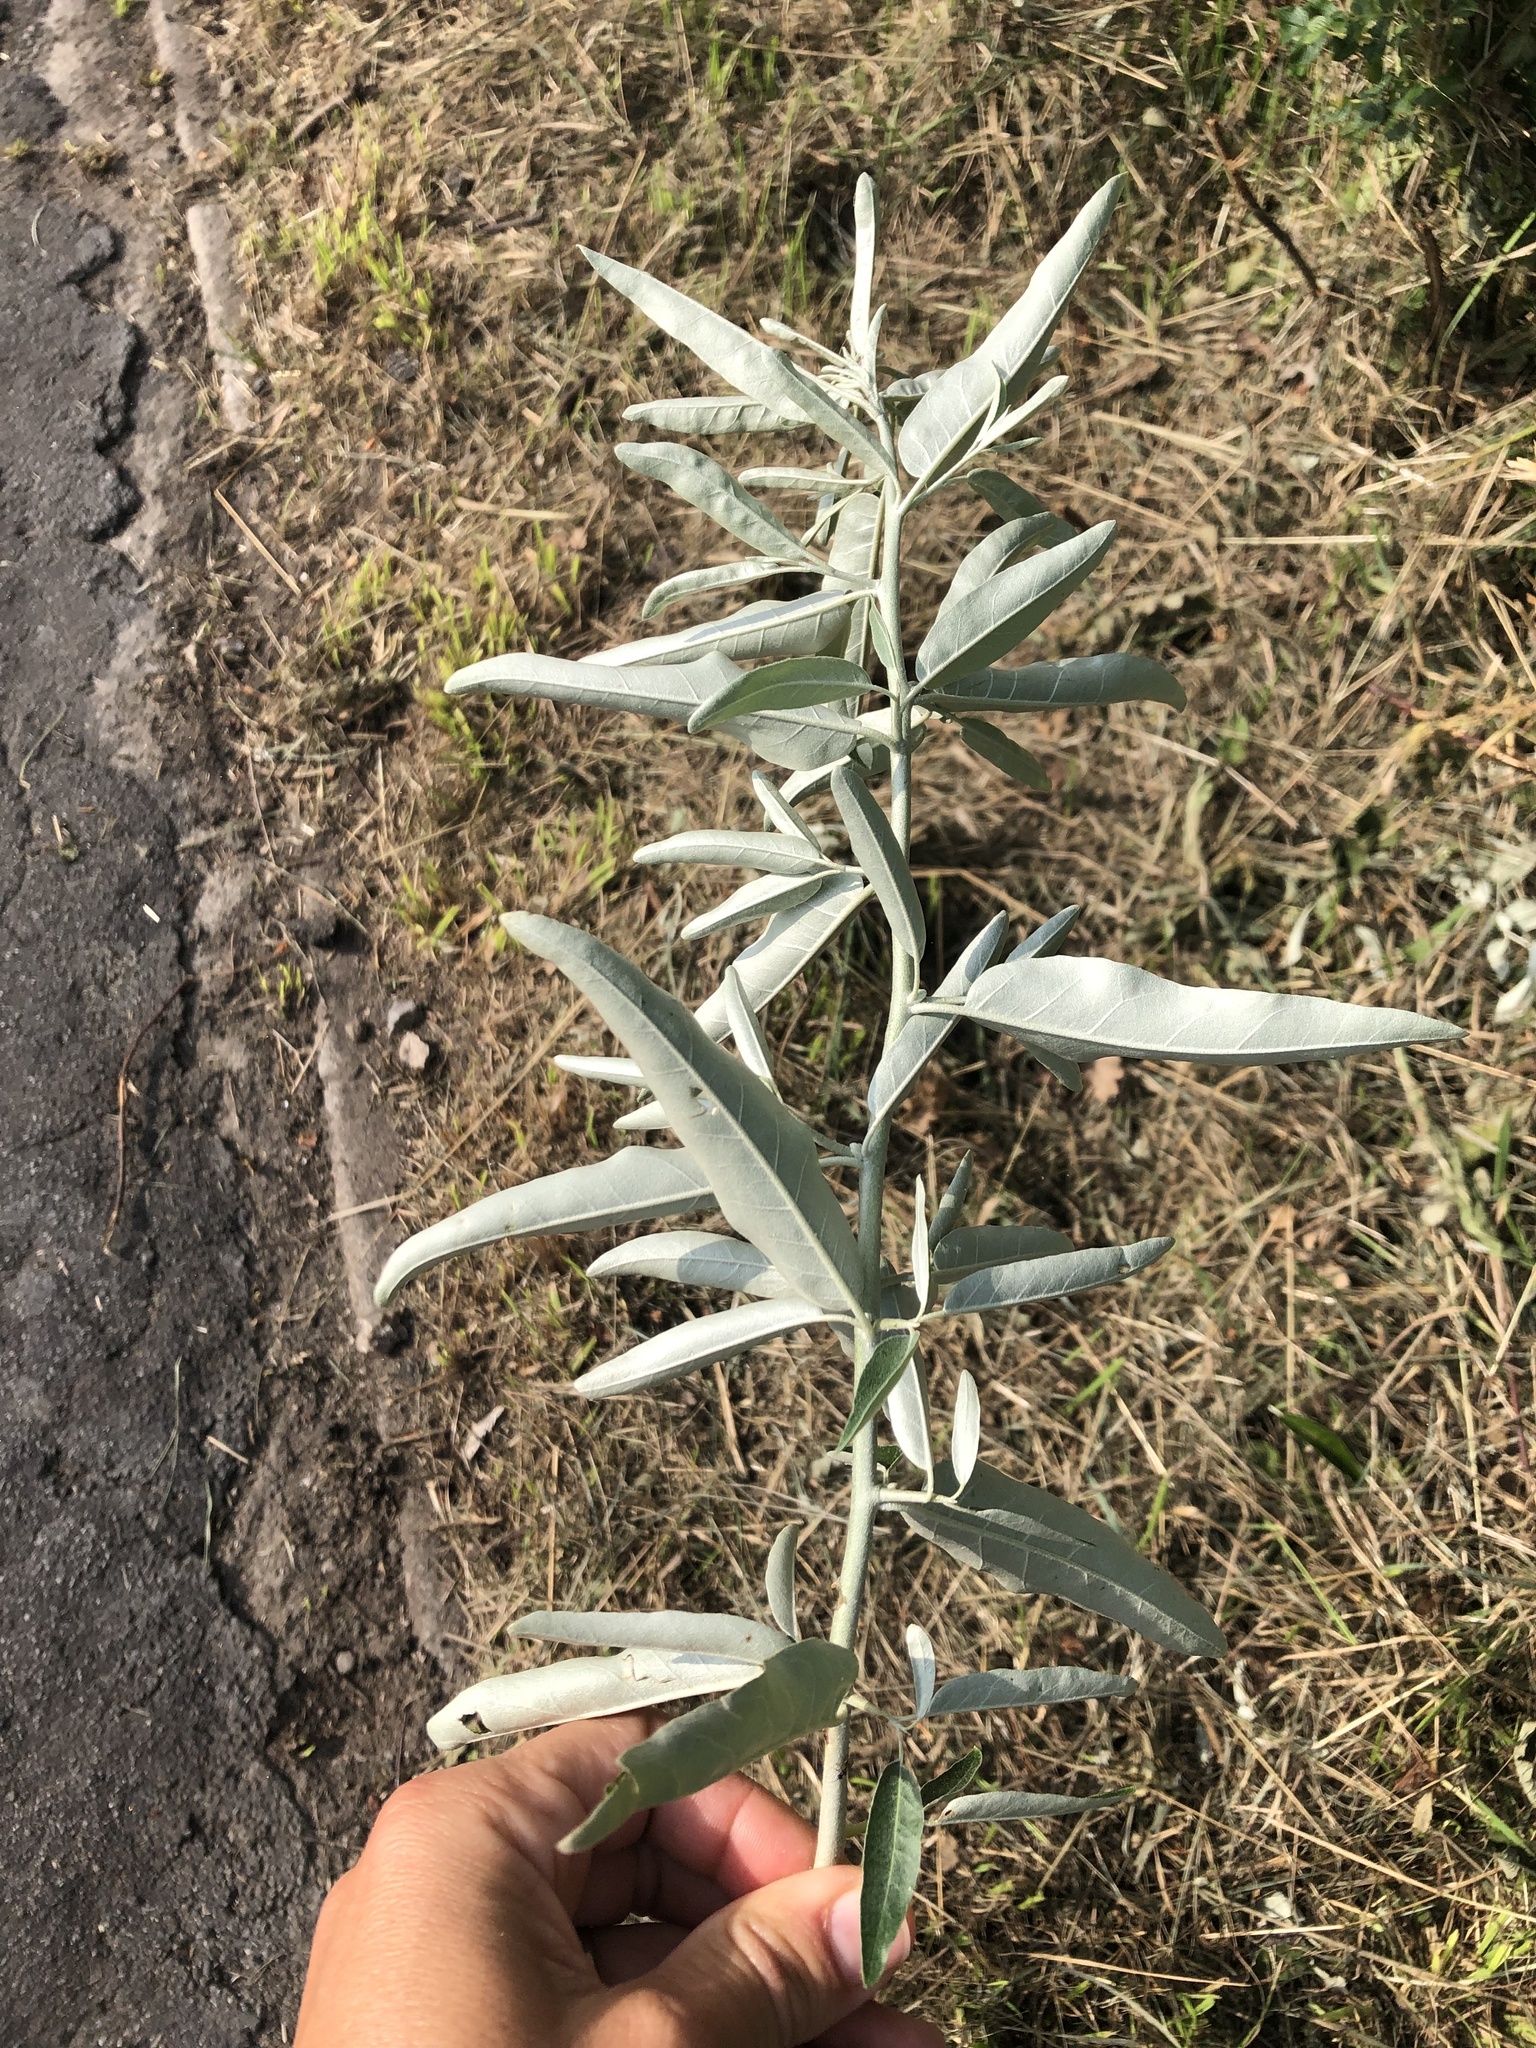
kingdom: Plantae
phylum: Tracheophyta
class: Magnoliopsida
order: Rosales
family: Elaeagnaceae
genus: Elaeagnus
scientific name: Elaeagnus angustifolia
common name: Russian olive
